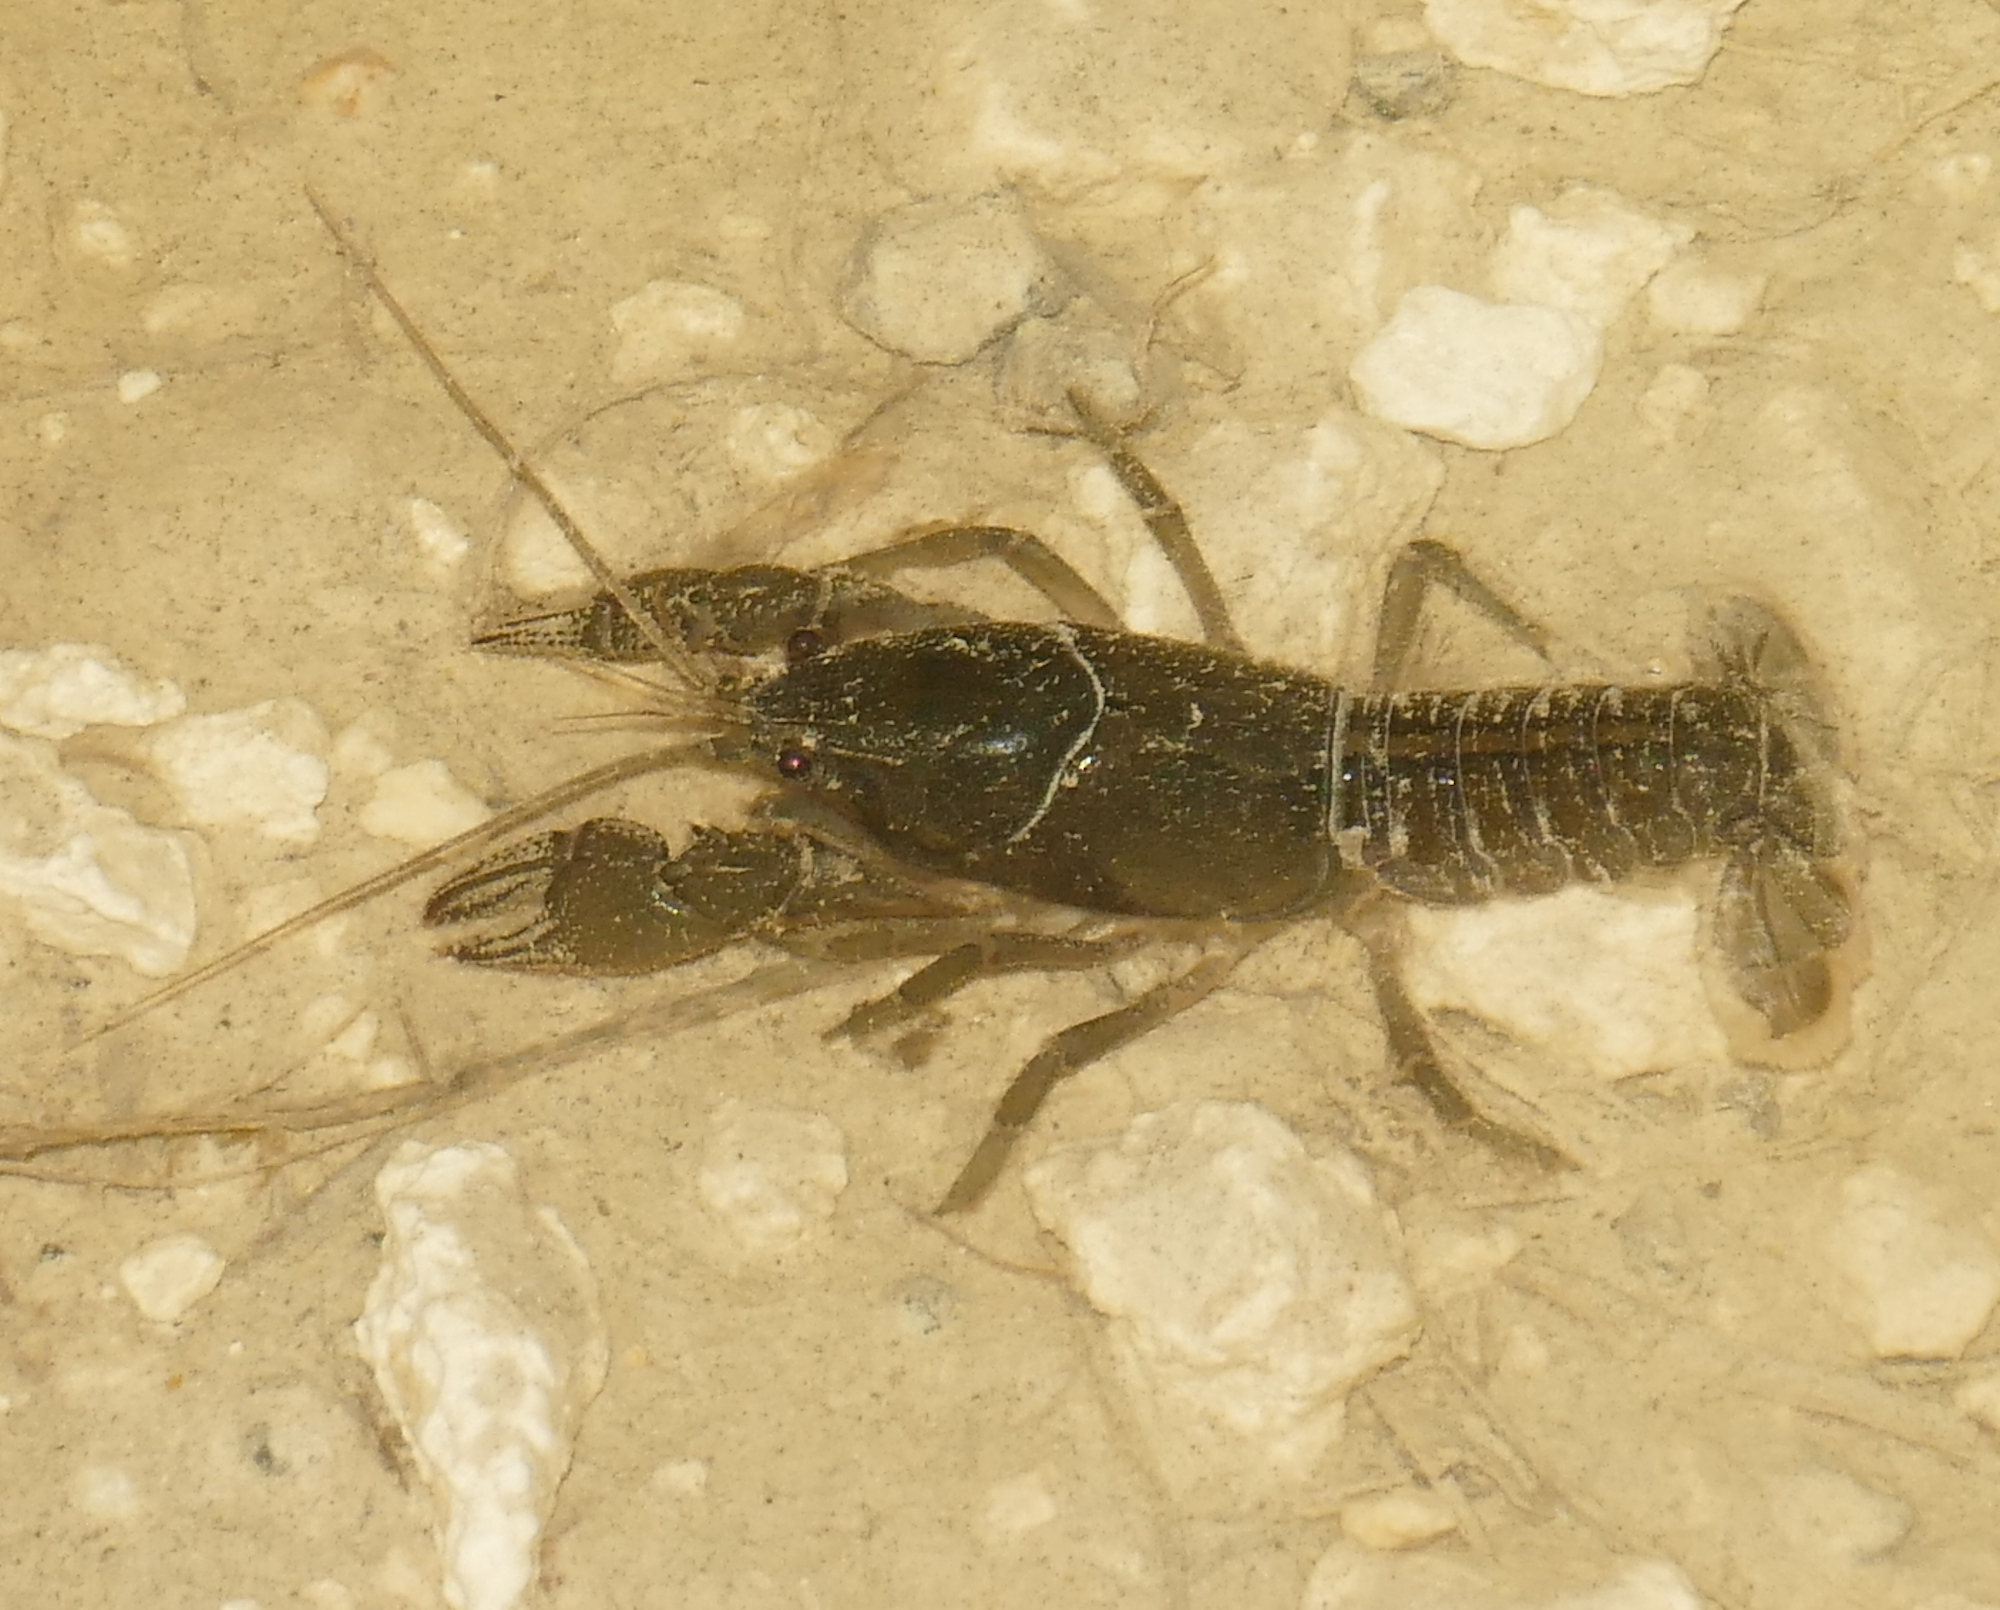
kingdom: Animalia
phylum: Arthropoda
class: Malacostraca
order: Decapoda
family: Cambaridae
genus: Creaserinus
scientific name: Creaserinus fodiens
